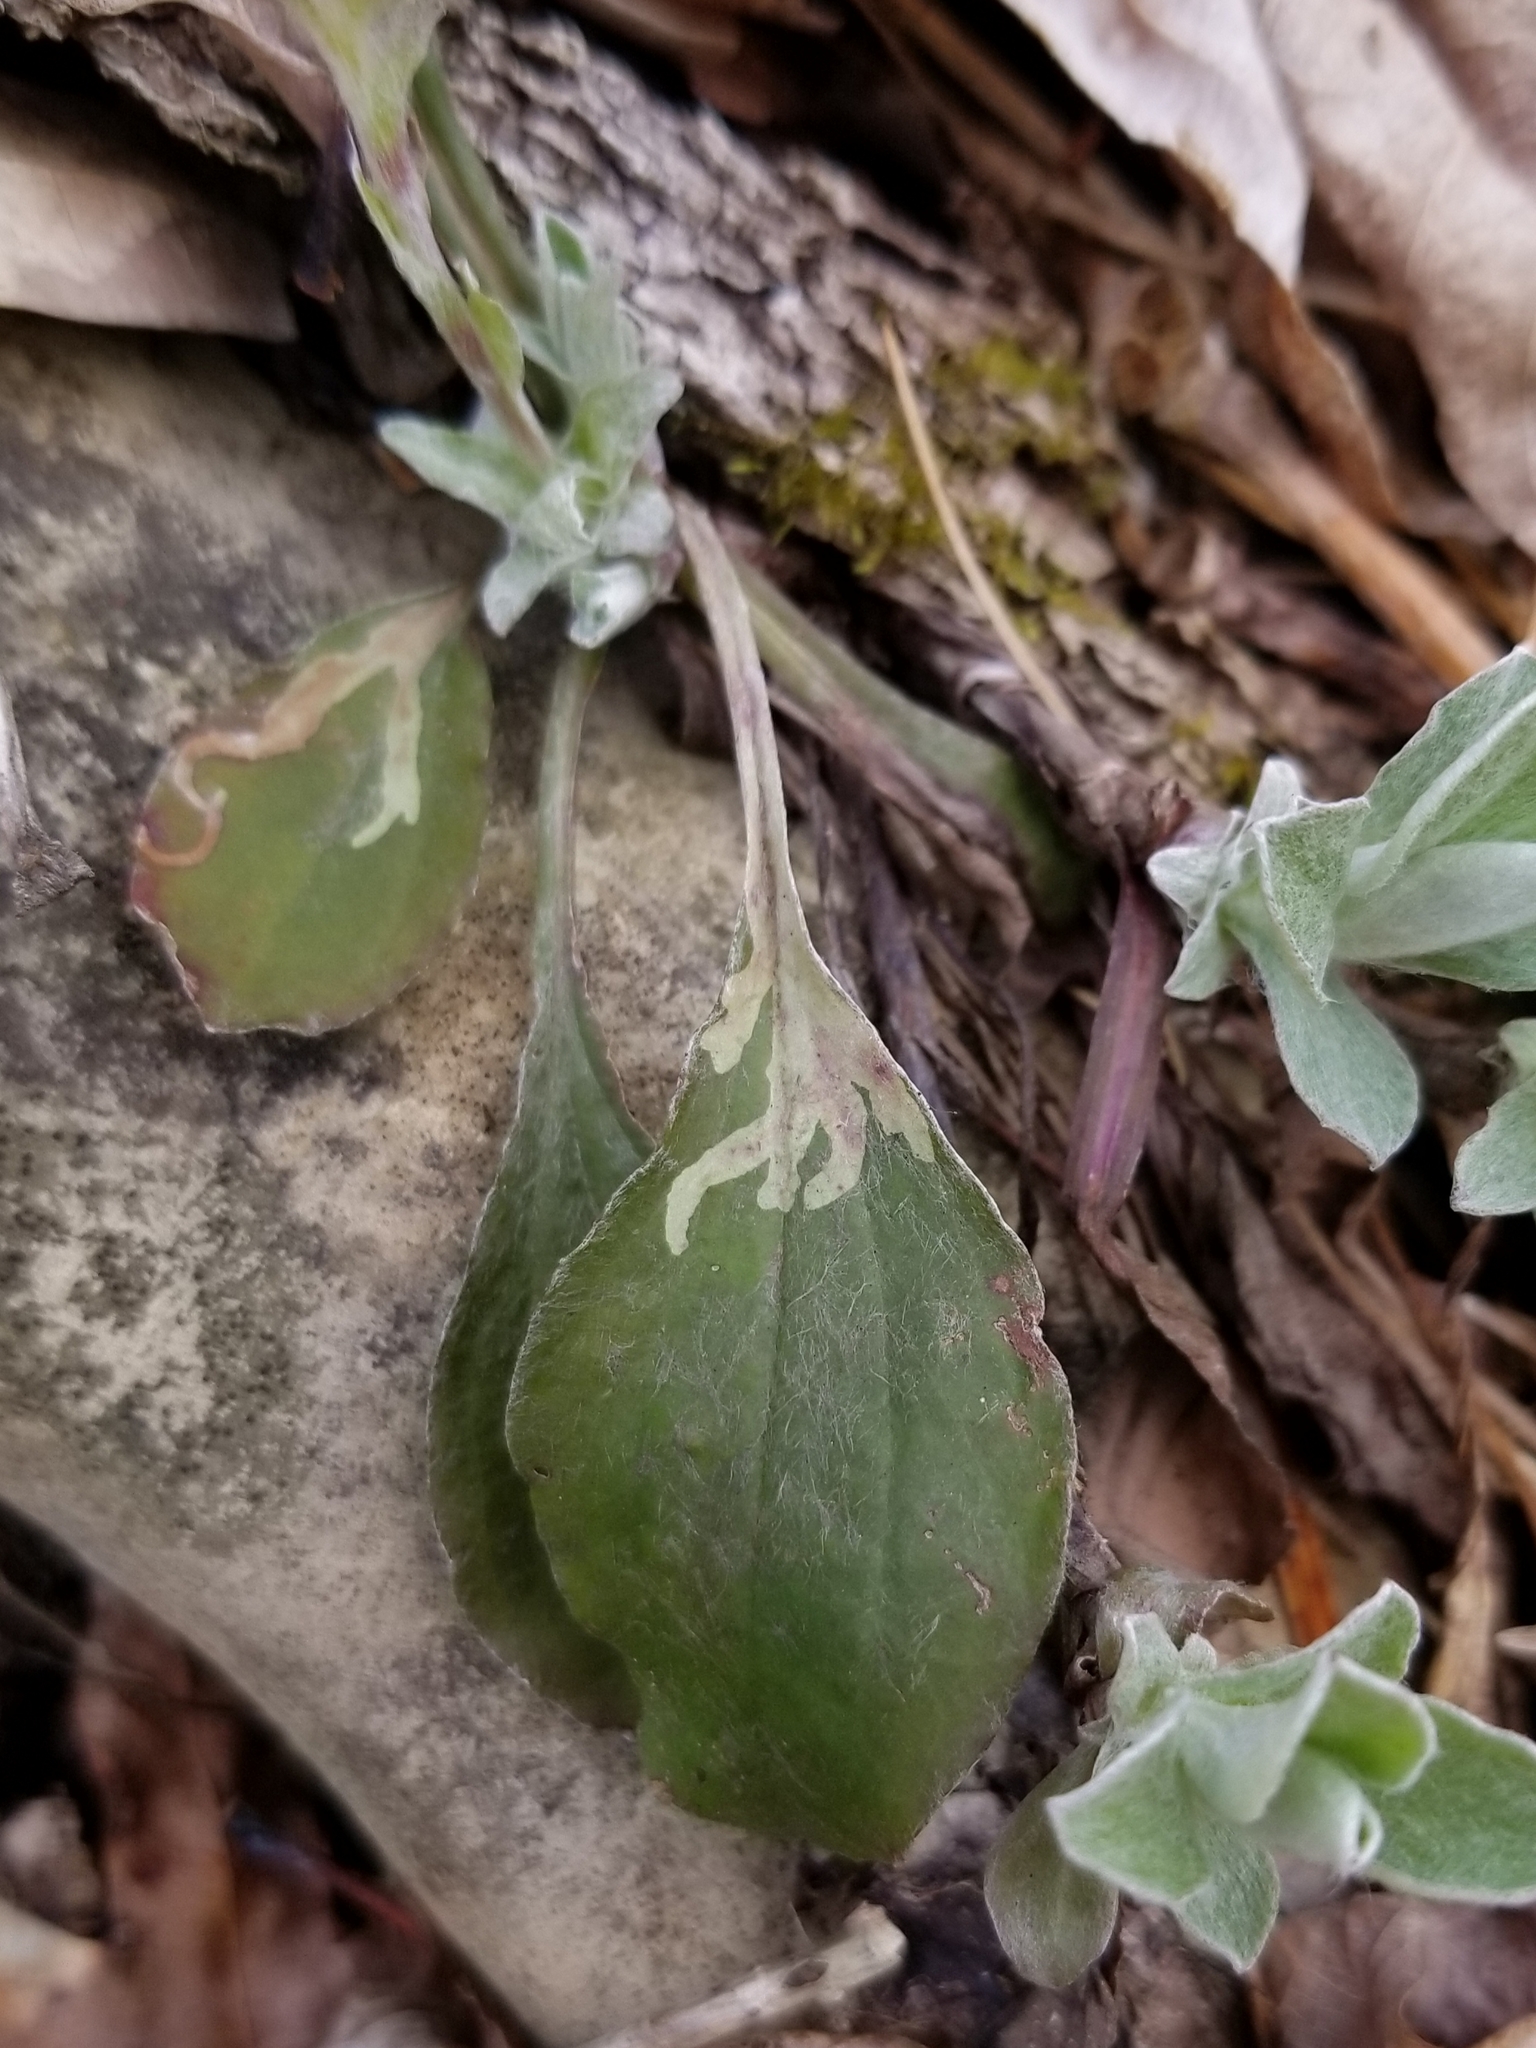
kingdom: Animalia
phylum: Arthropoda
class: Insecta
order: Diptera
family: Agromyzidae
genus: Ophiomyia
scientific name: Ophiomyia coniceps
